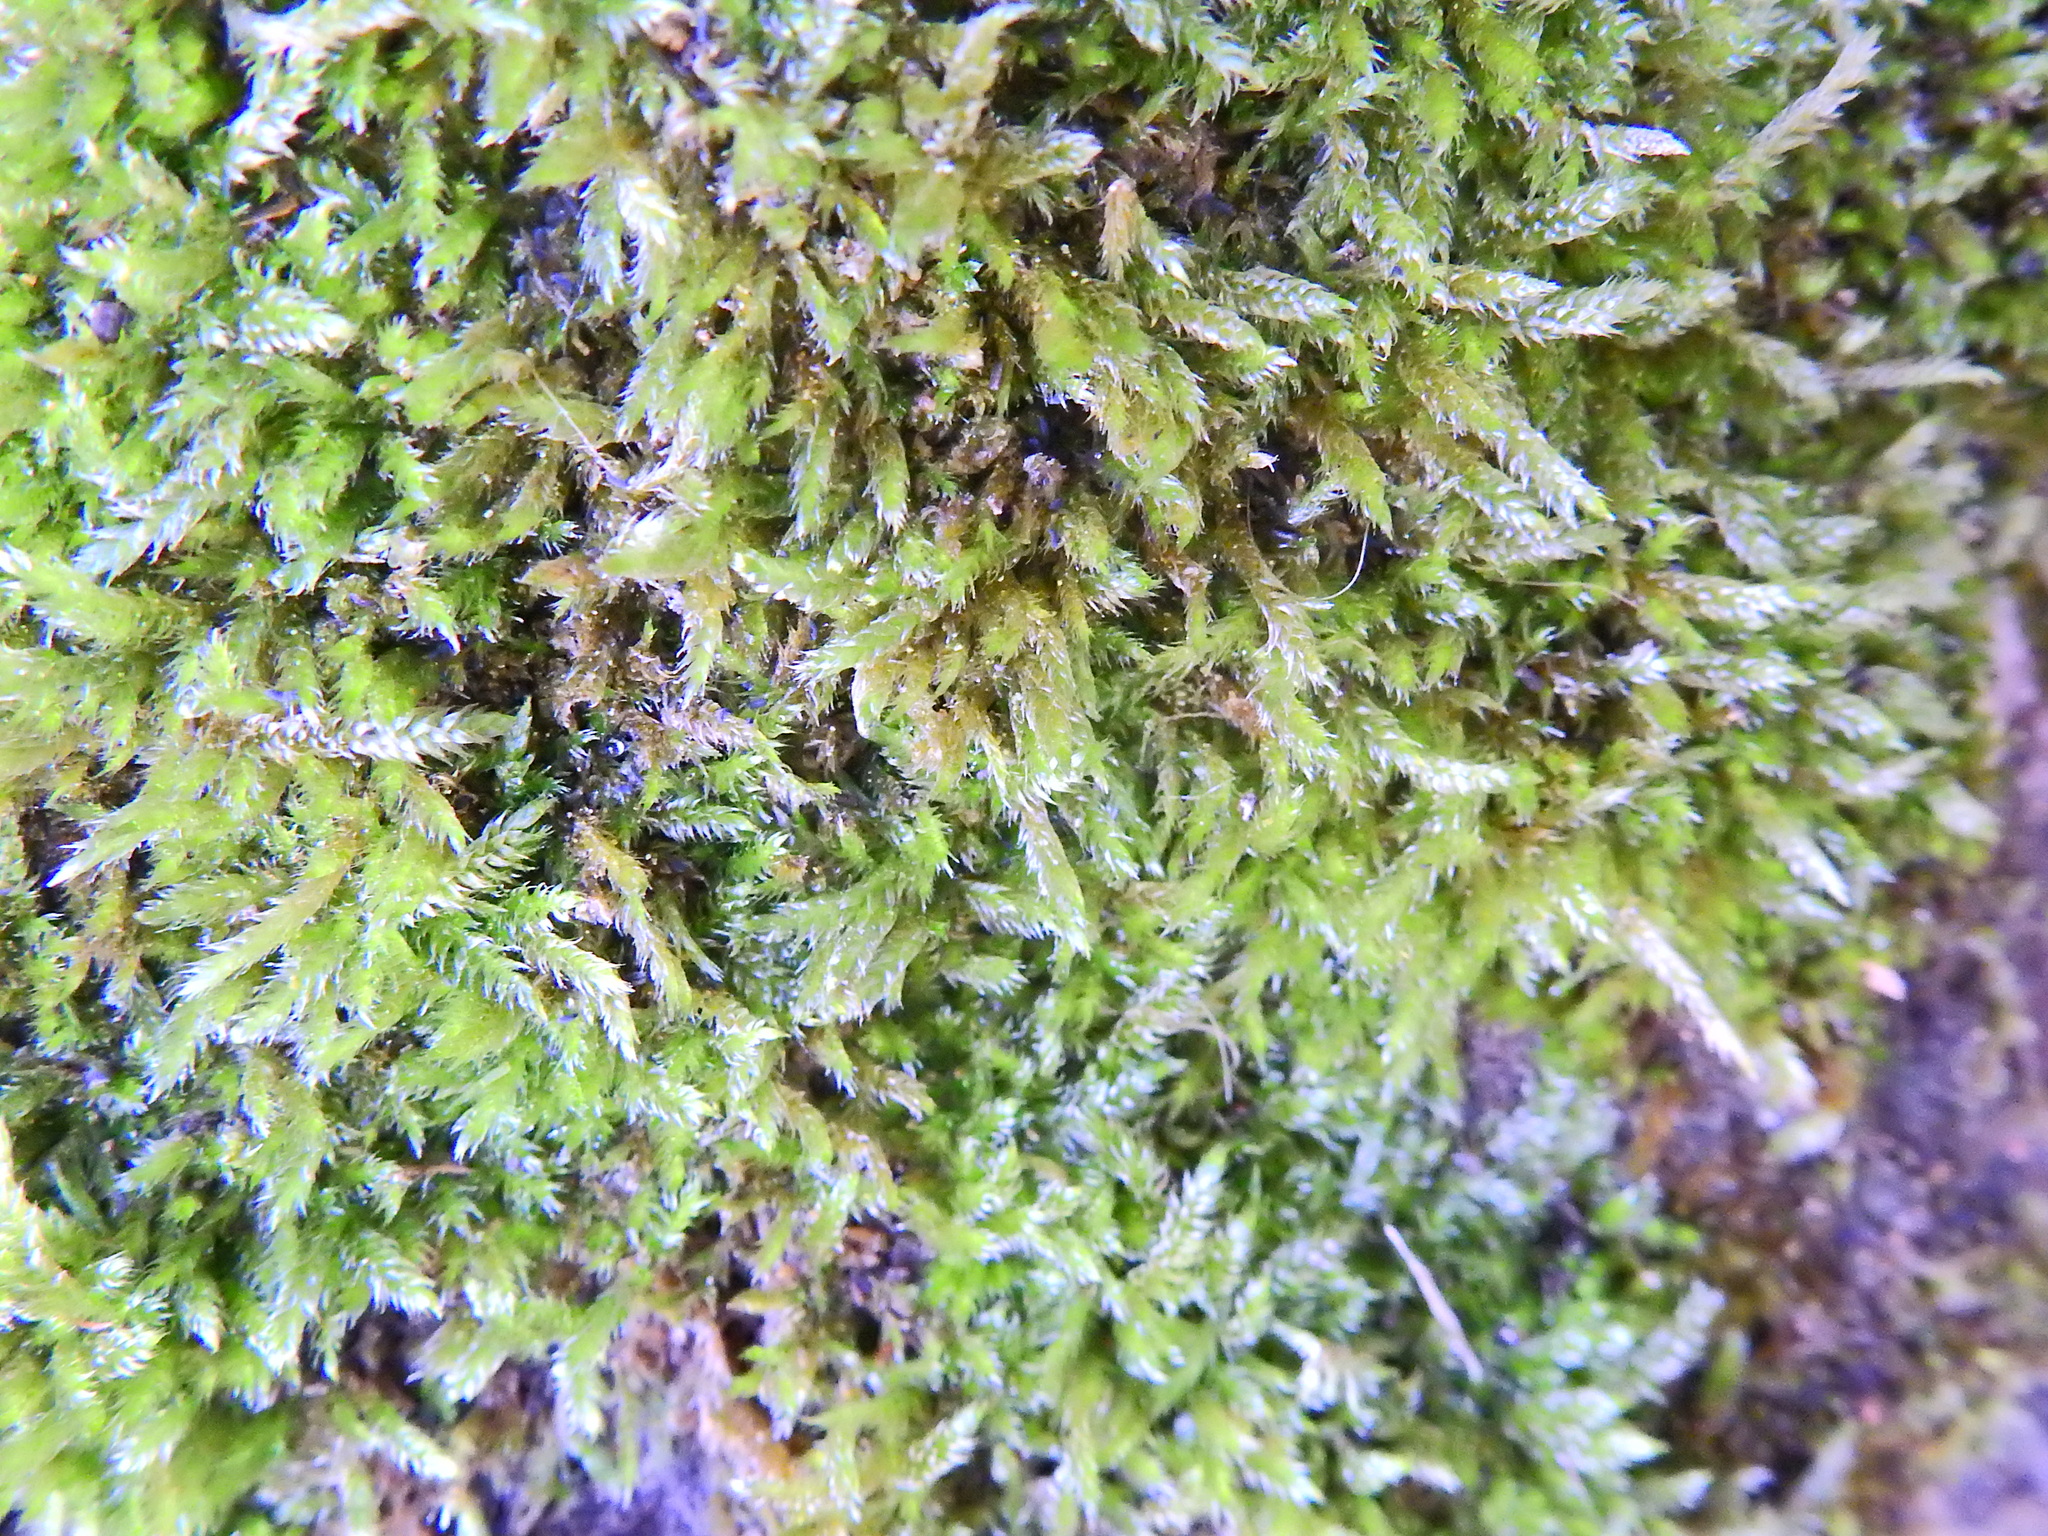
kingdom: Plantae
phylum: Bryophyta
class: Bryopsida
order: Hypnales
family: Hypnaceae
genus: Hypnum
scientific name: Hypnum cupressiforme
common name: Cypress-leaved plait-moss
